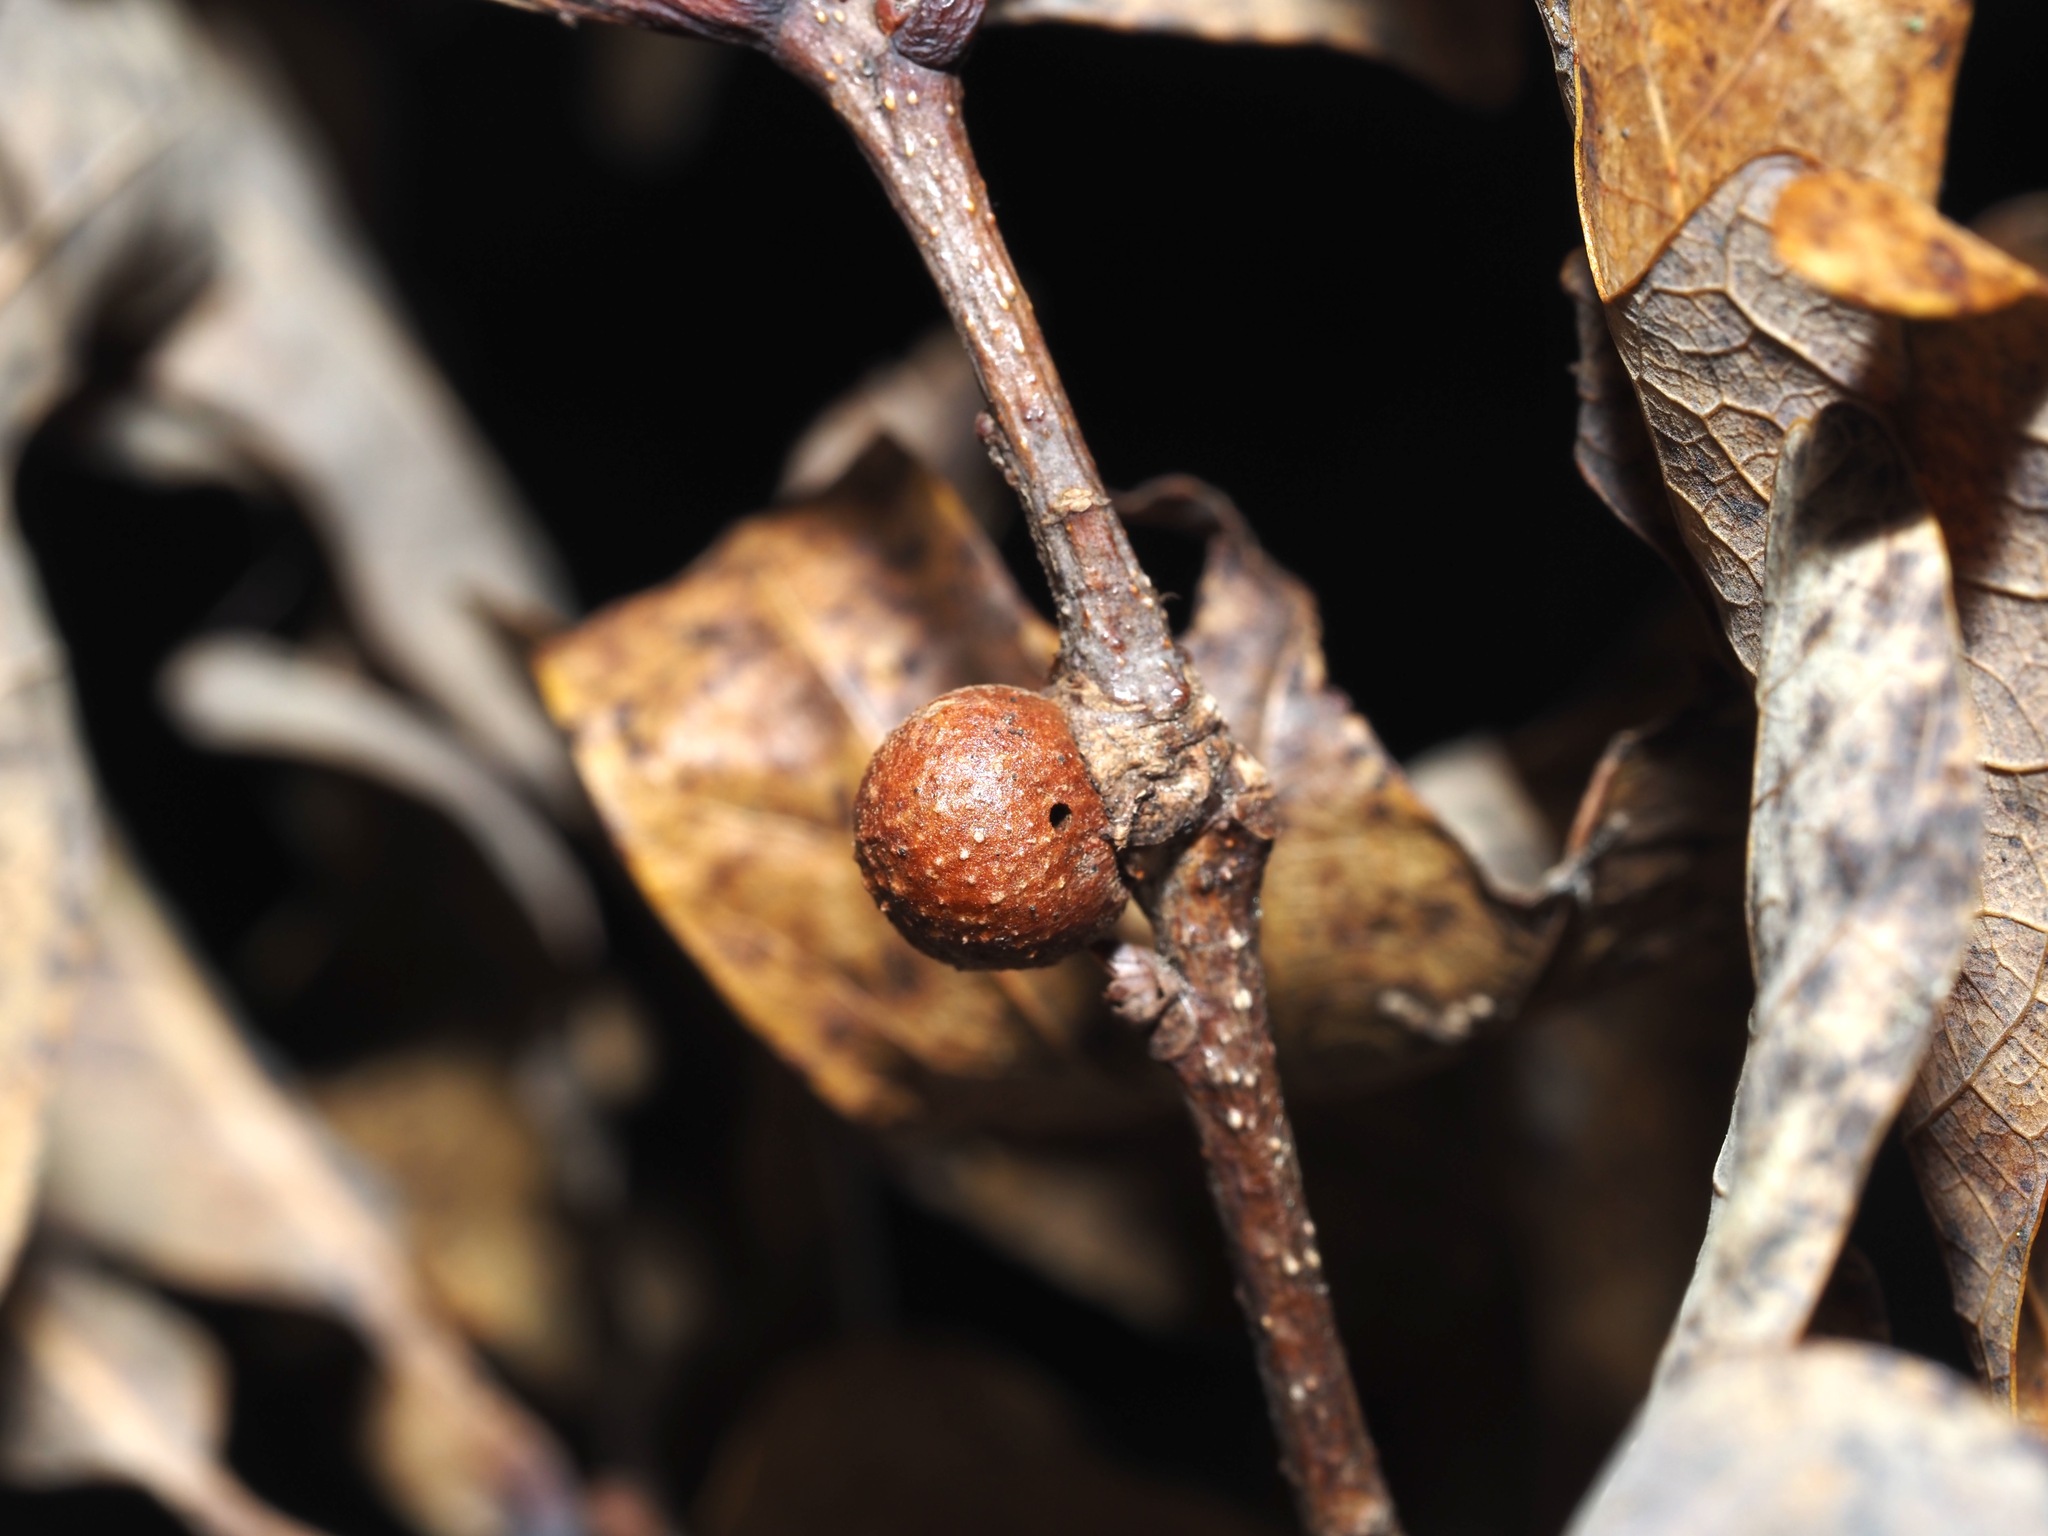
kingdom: Animalia
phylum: Arthropoda
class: Insecta
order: Hymenoptera
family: Cynipidae
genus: Disholcaspis
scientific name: Disholcaspis quercusglobulus
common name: Round bullet gall wasp
